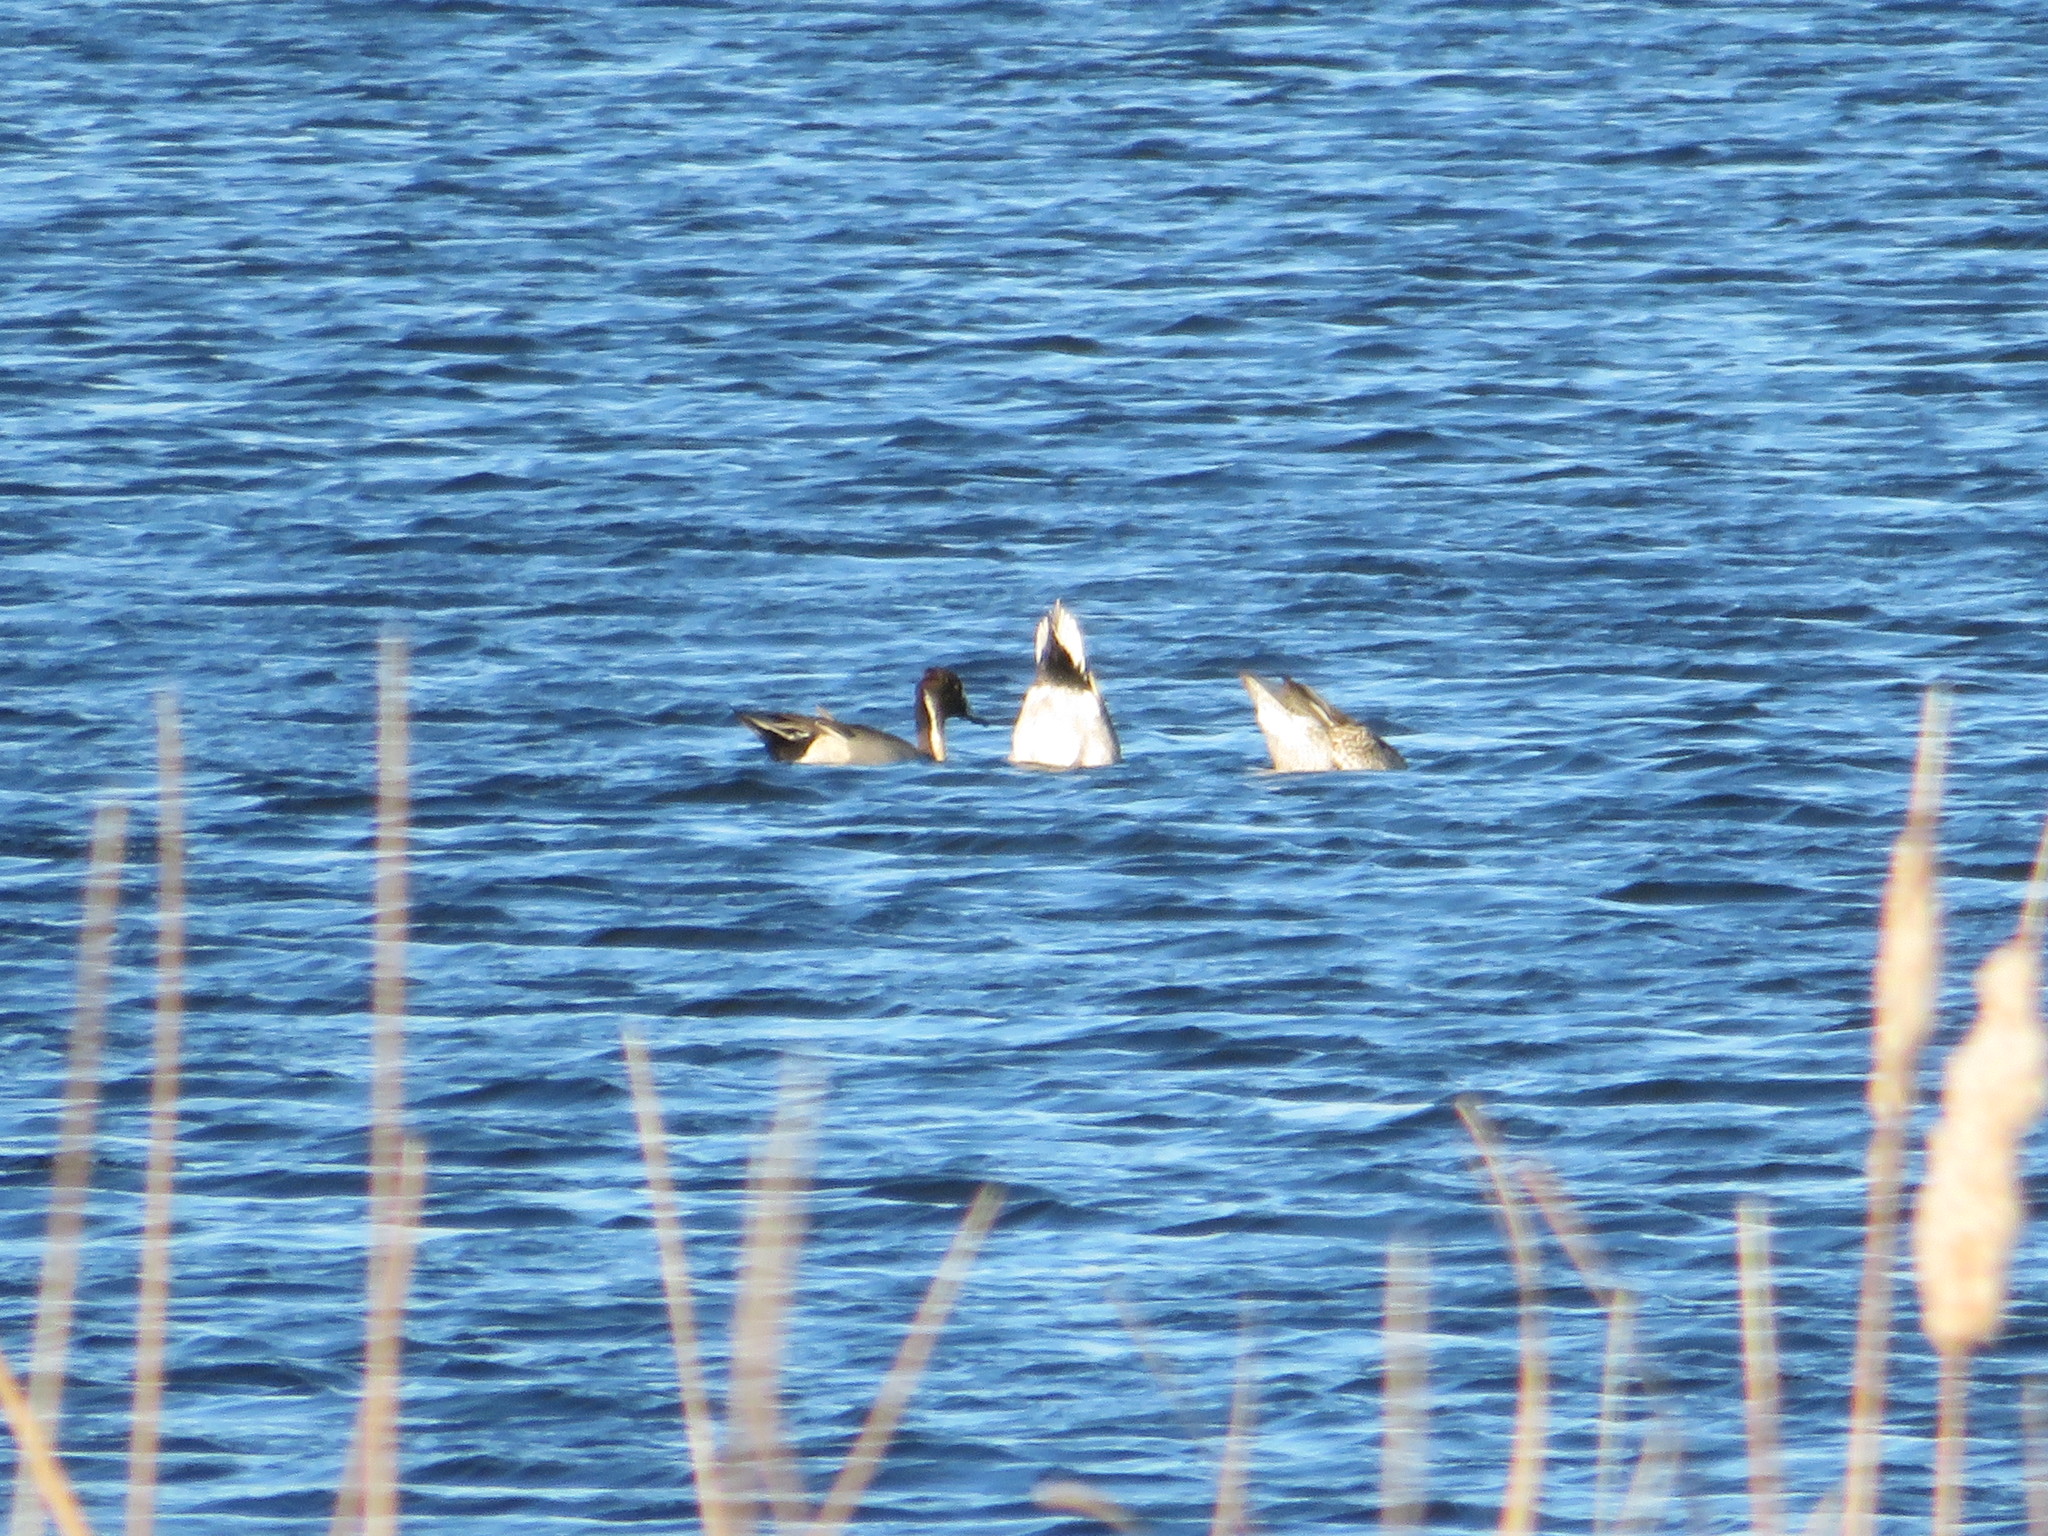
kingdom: Animalia
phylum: Chordata
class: Aves
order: Anseriformes
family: Anatidae
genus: Anas
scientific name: Anas acuta
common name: Northern pintail
